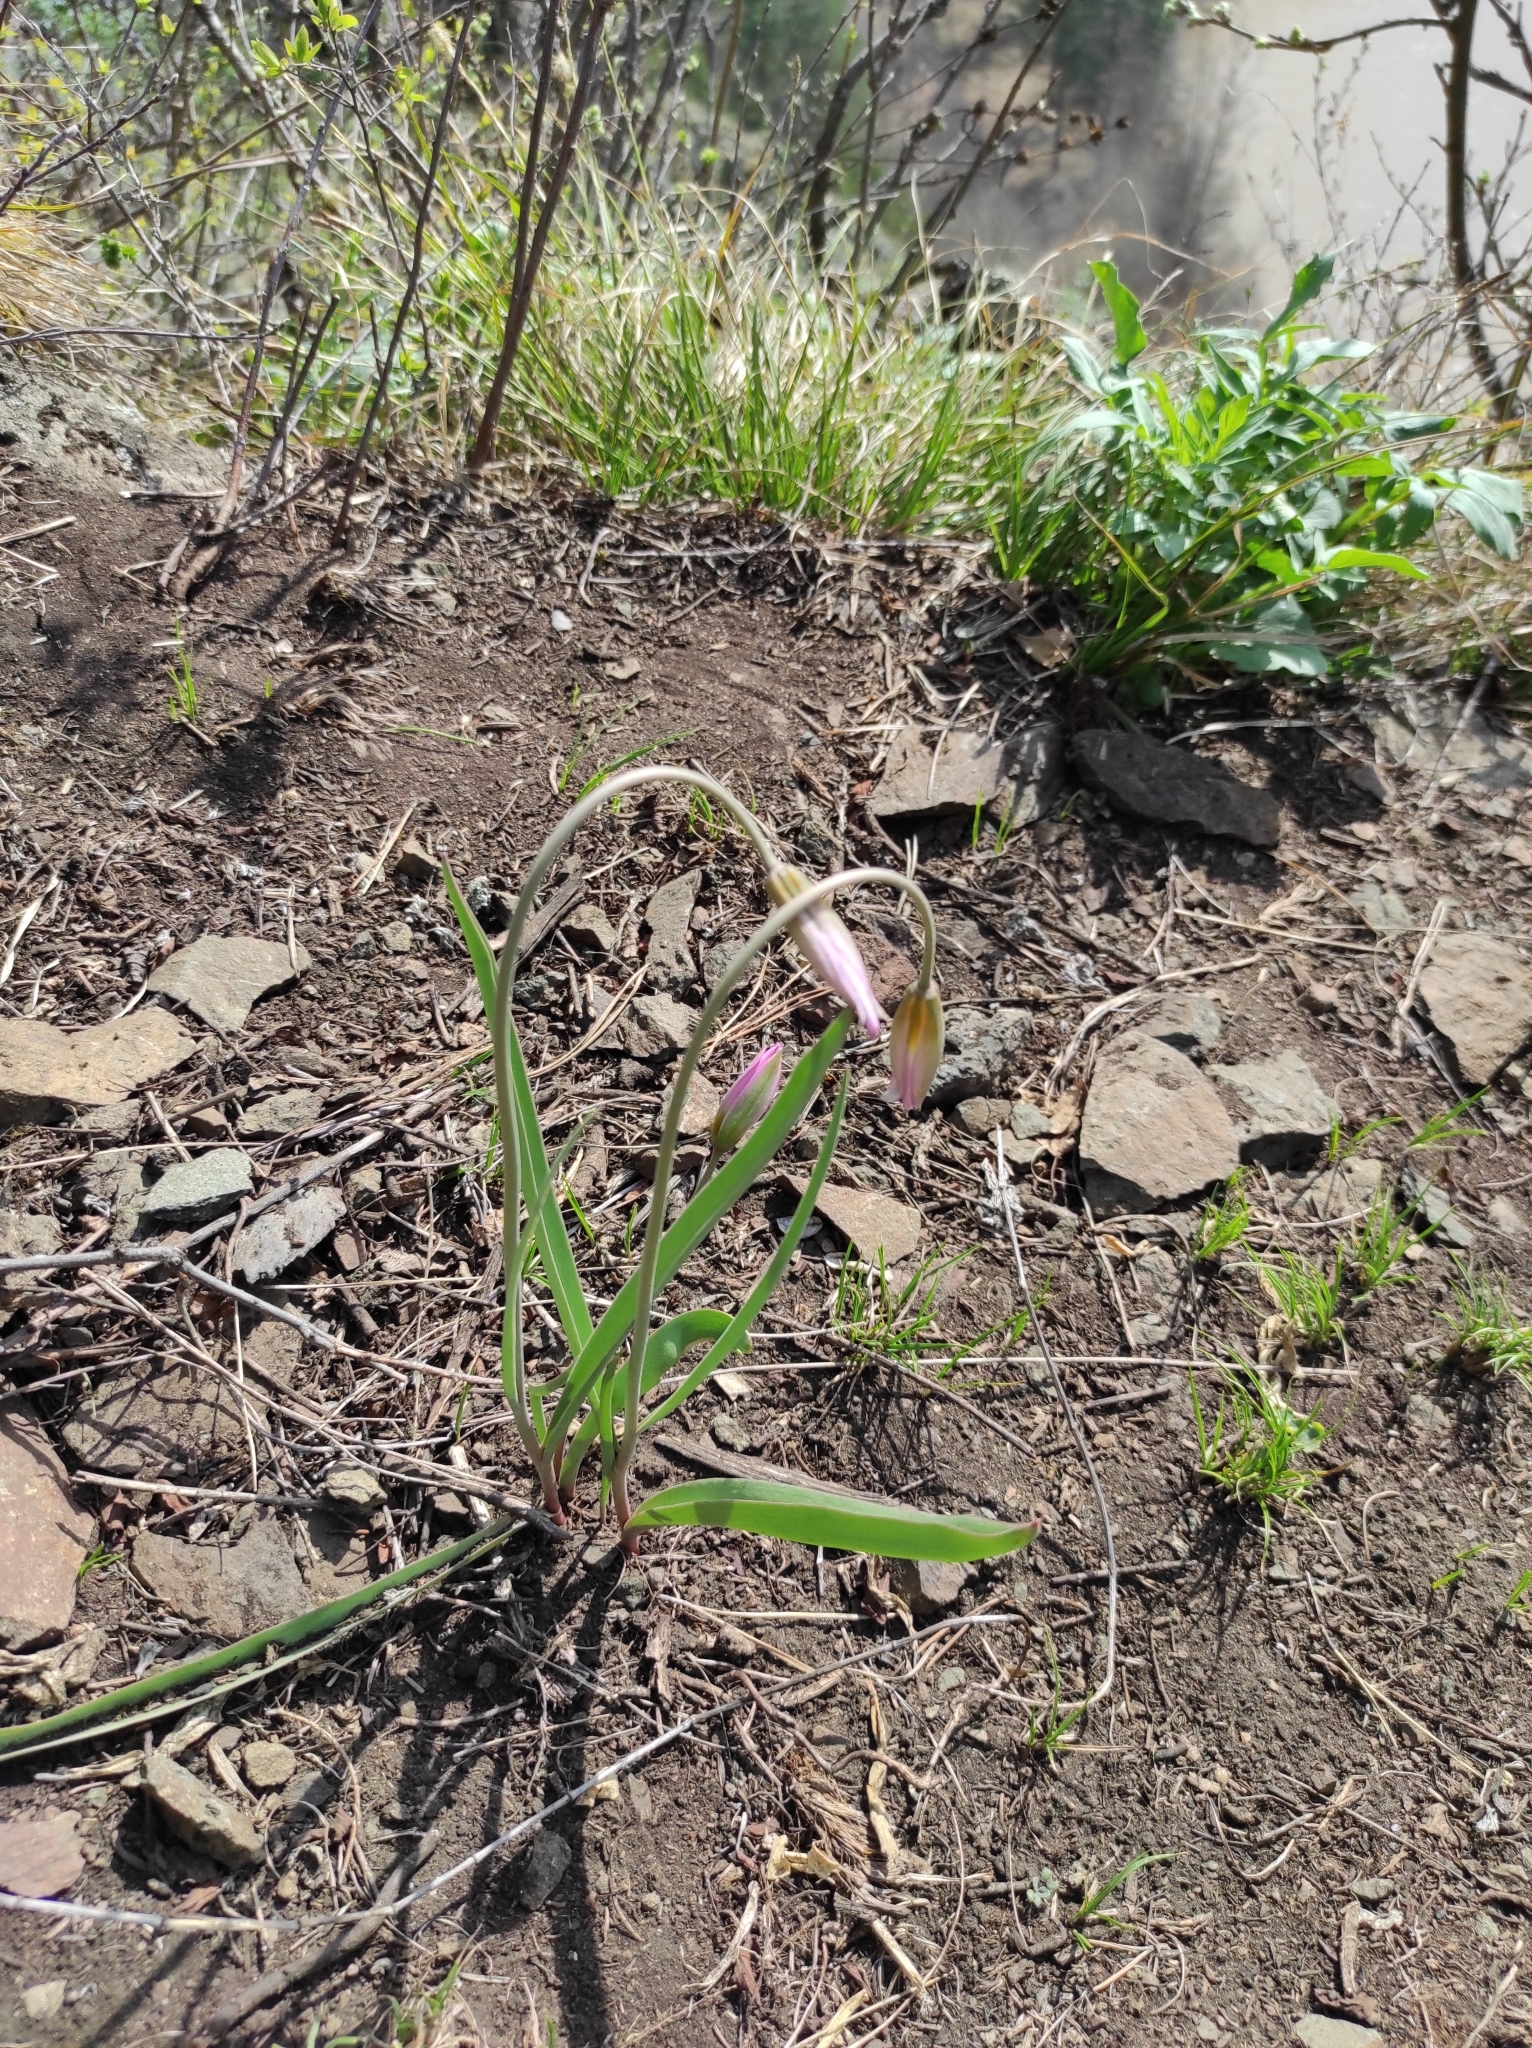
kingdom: Plantae
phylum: Tracheophyta
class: Liliopsida
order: Liliales
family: Liliaceae
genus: Tulipa
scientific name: Tulipa patens
